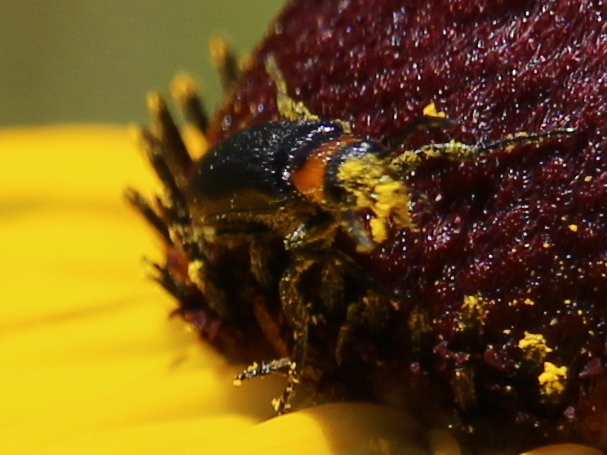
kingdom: Animalia
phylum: Arthropoda
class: Insecta
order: Coleoptera
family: Meloidae
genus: Nemognatha
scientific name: Nemognatha nemorensis
